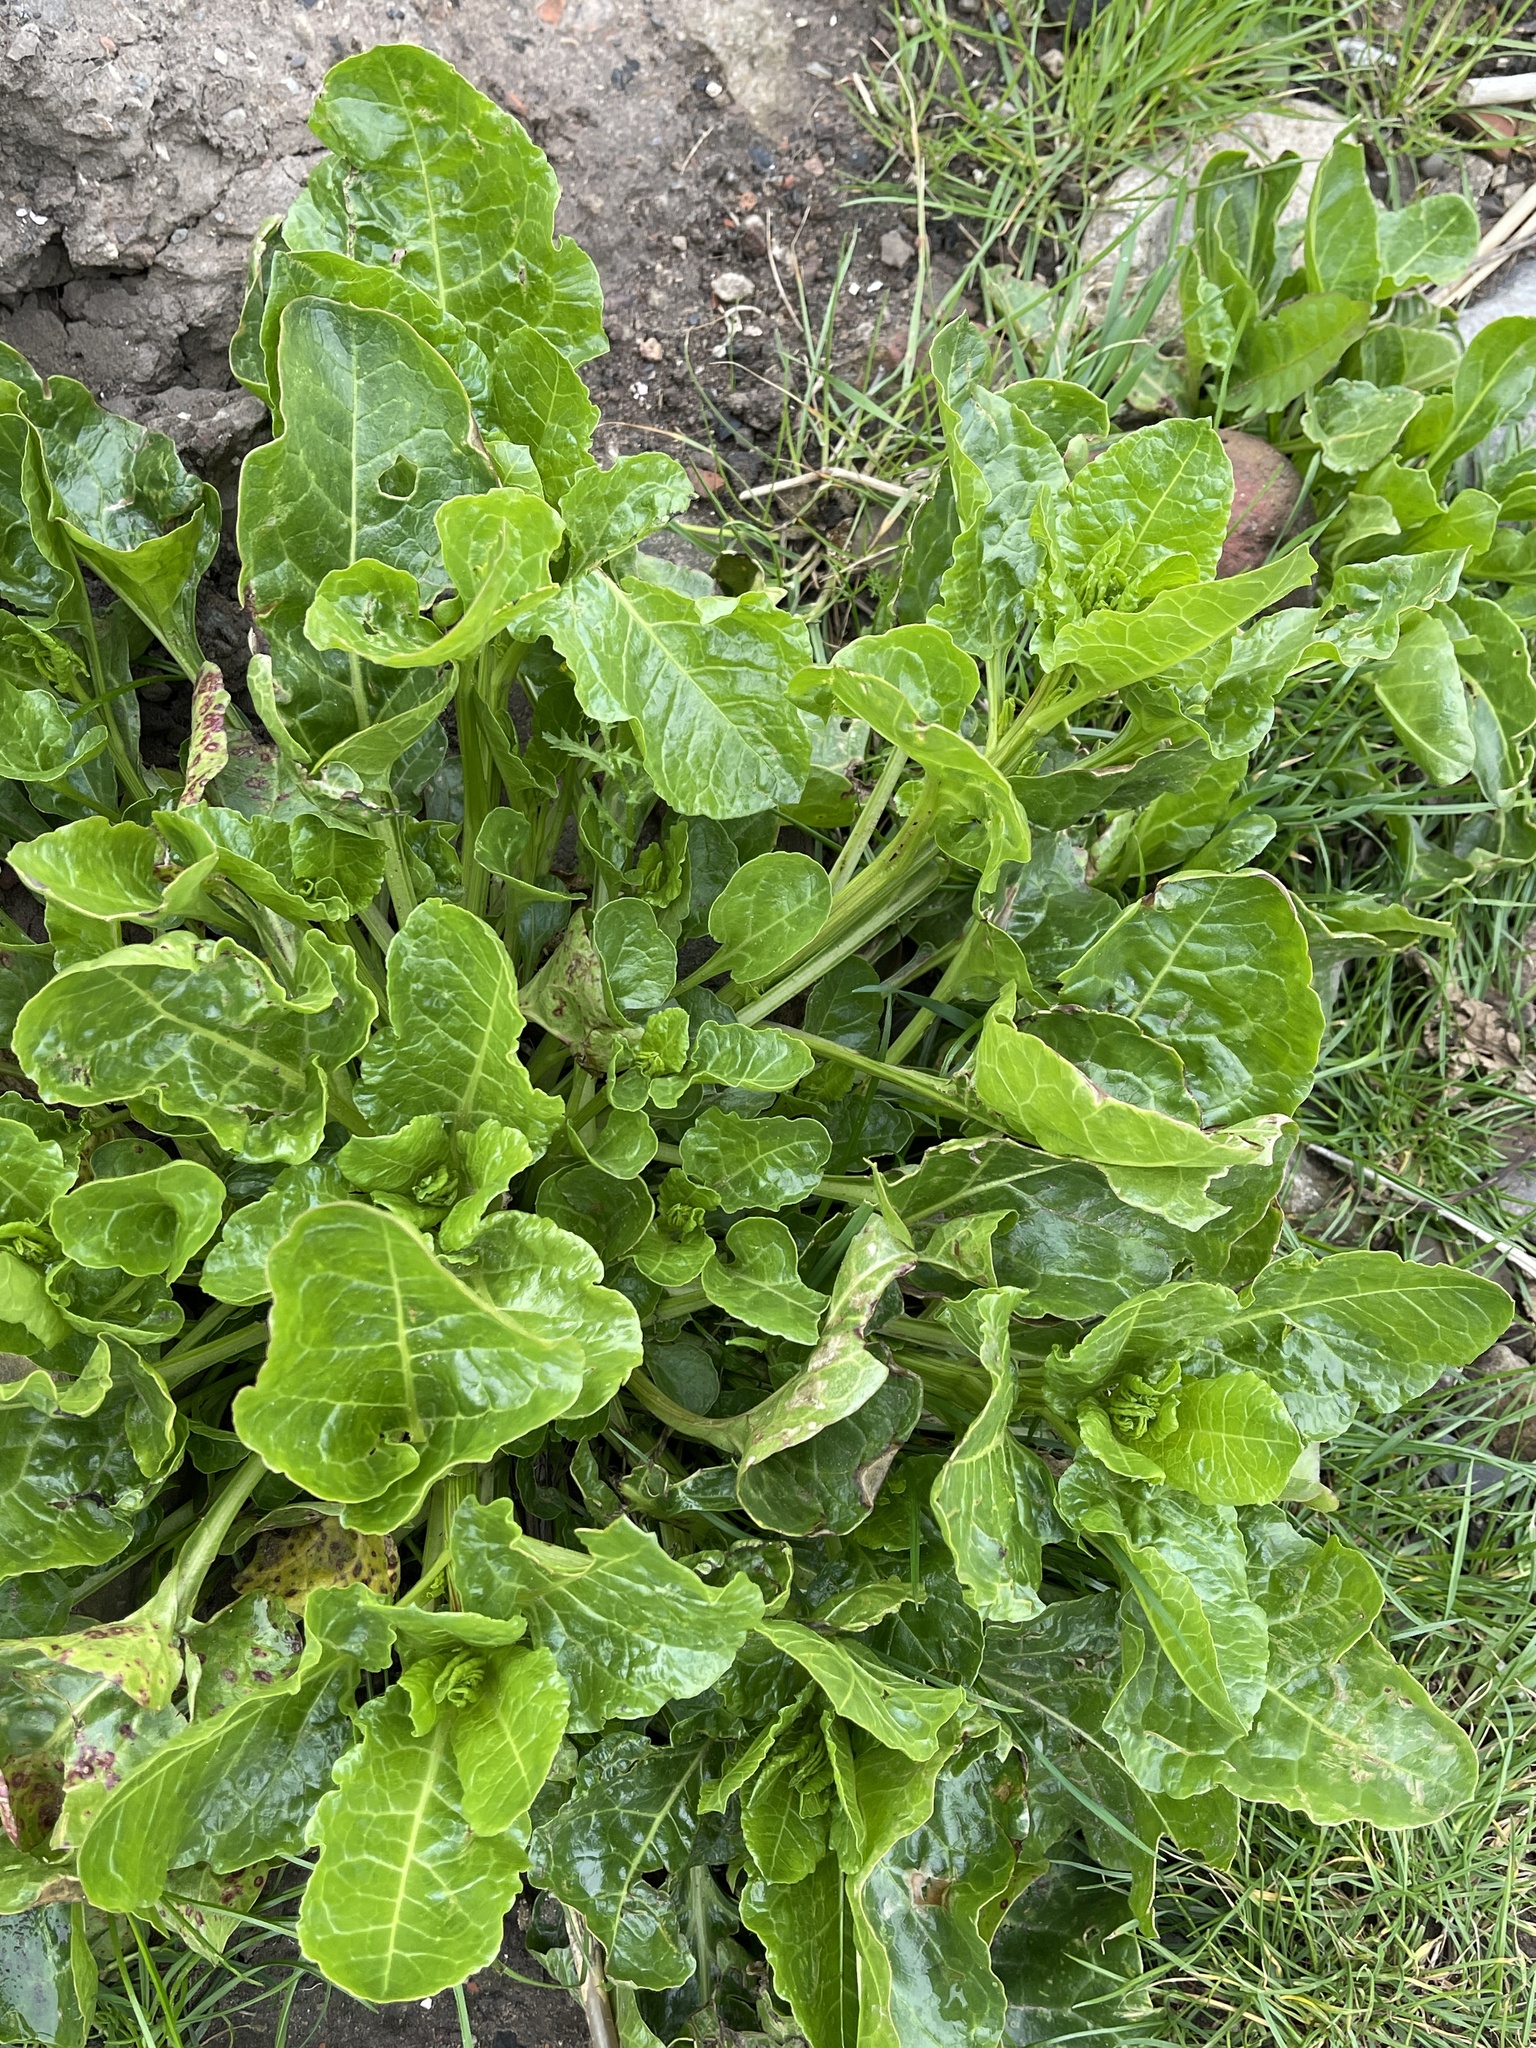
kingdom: Plantae
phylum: Tracheophyta
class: Magnoliopsida
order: Caryophyllales
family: Amaranthaceae
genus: Beta
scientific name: Beta vulgaris
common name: Beet
